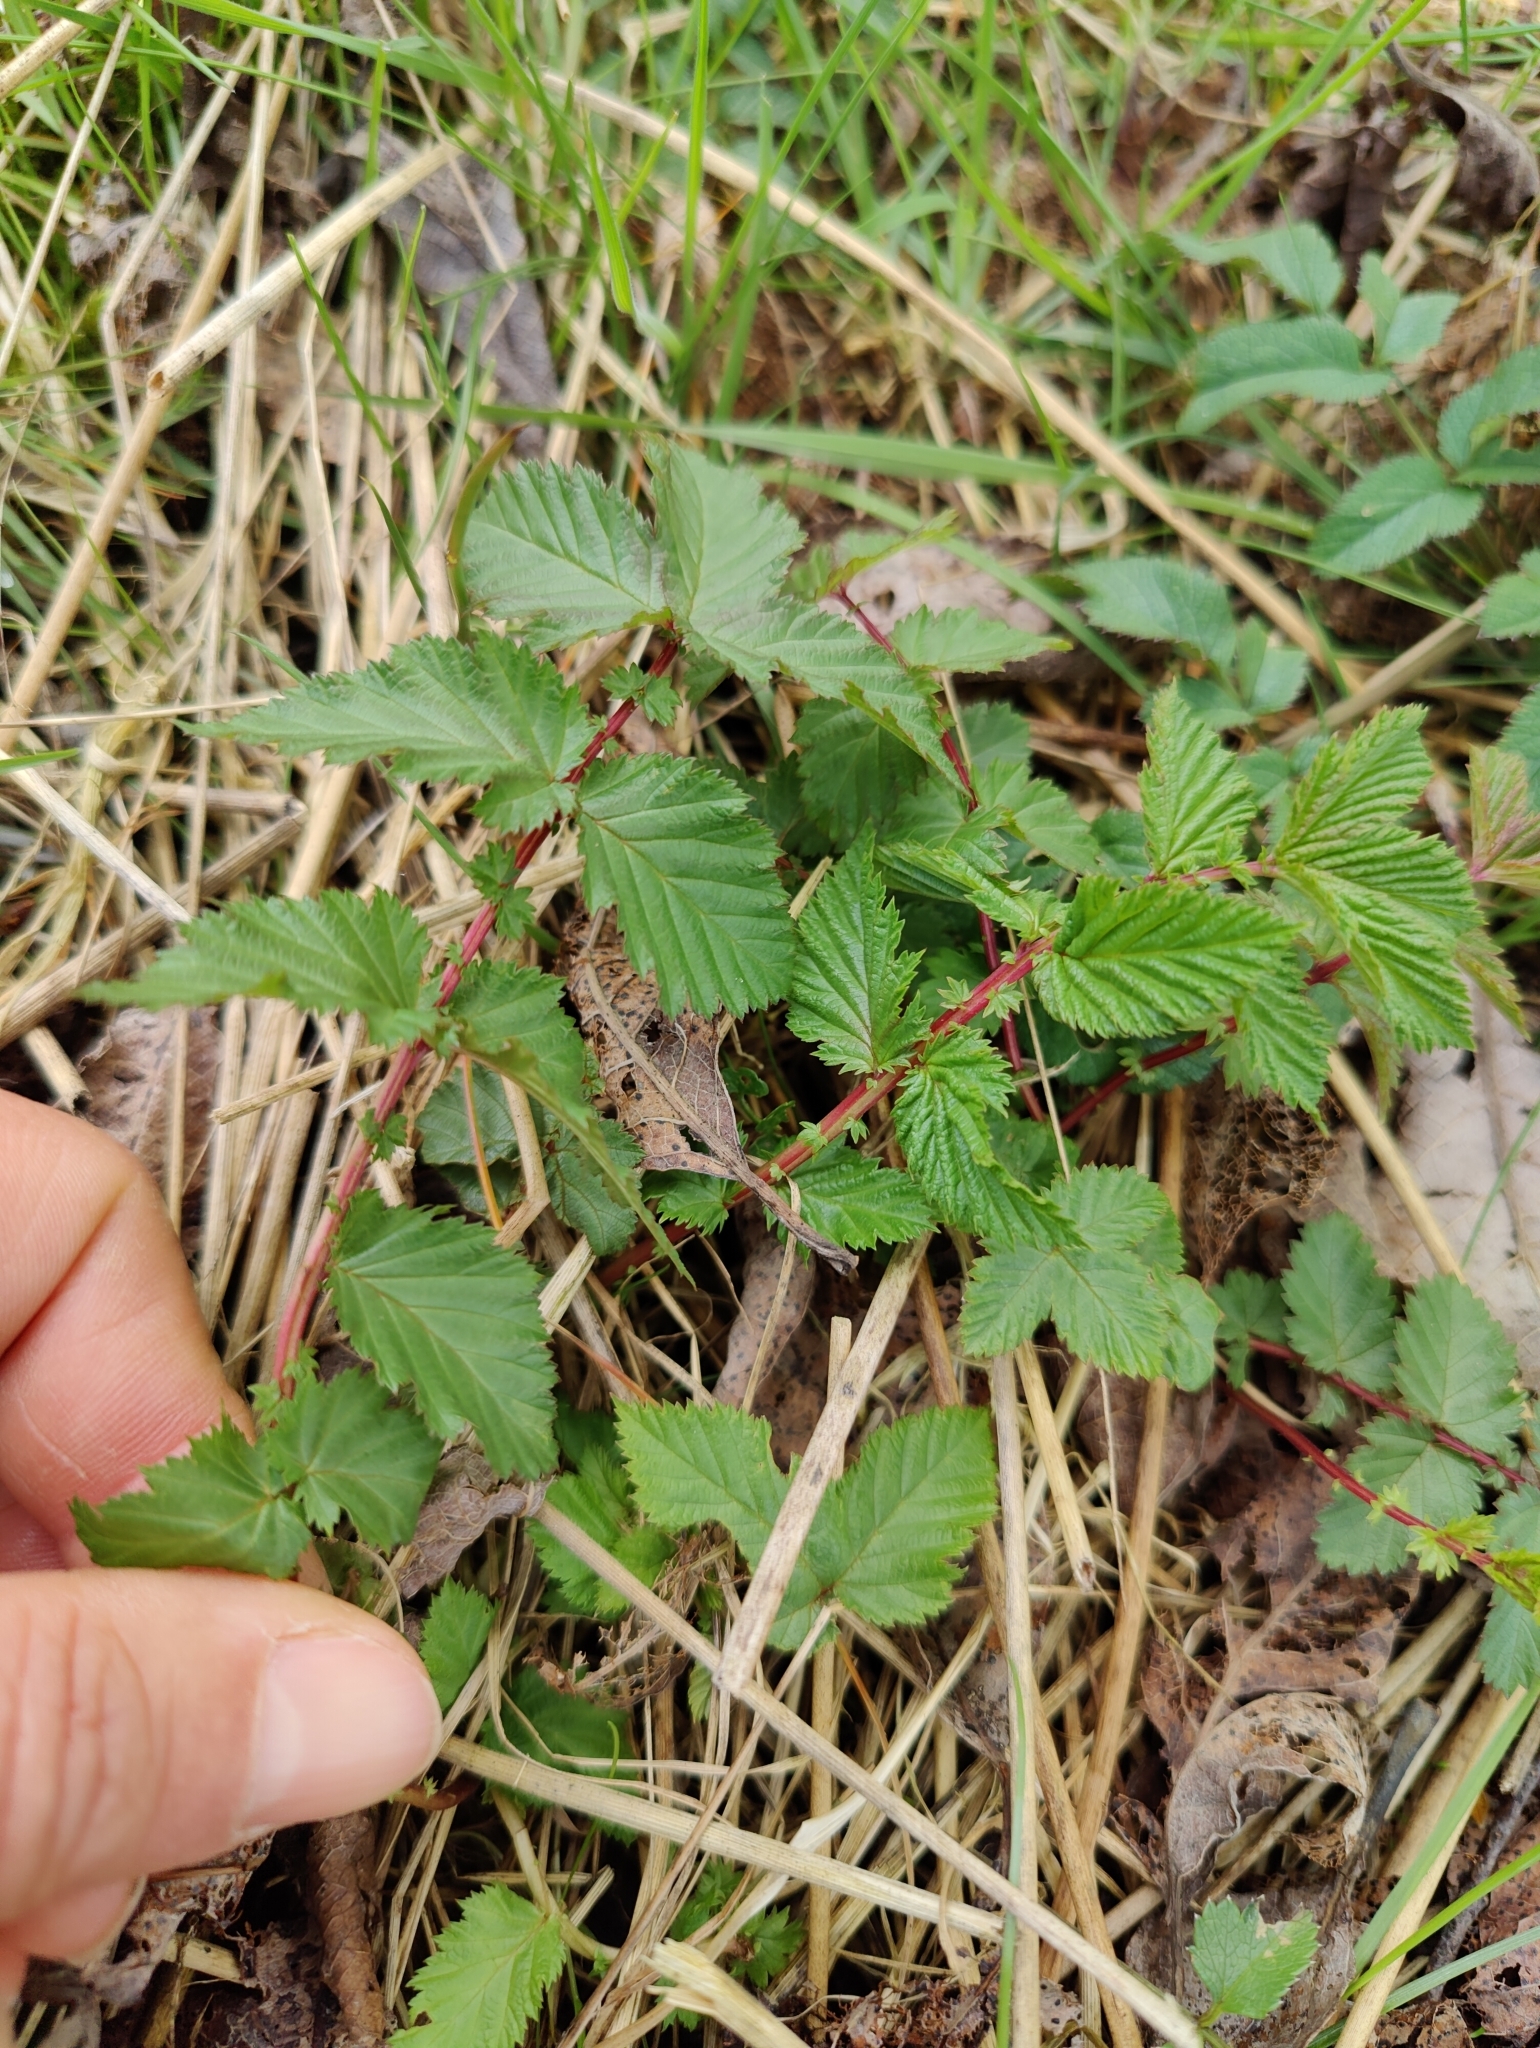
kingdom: Plantae
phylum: Tracheophyta
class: Magnoliopsida
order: Rosales
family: Rosaceae
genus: Filipendula
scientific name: Filipendula ulmaria
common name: Meadowsweet
